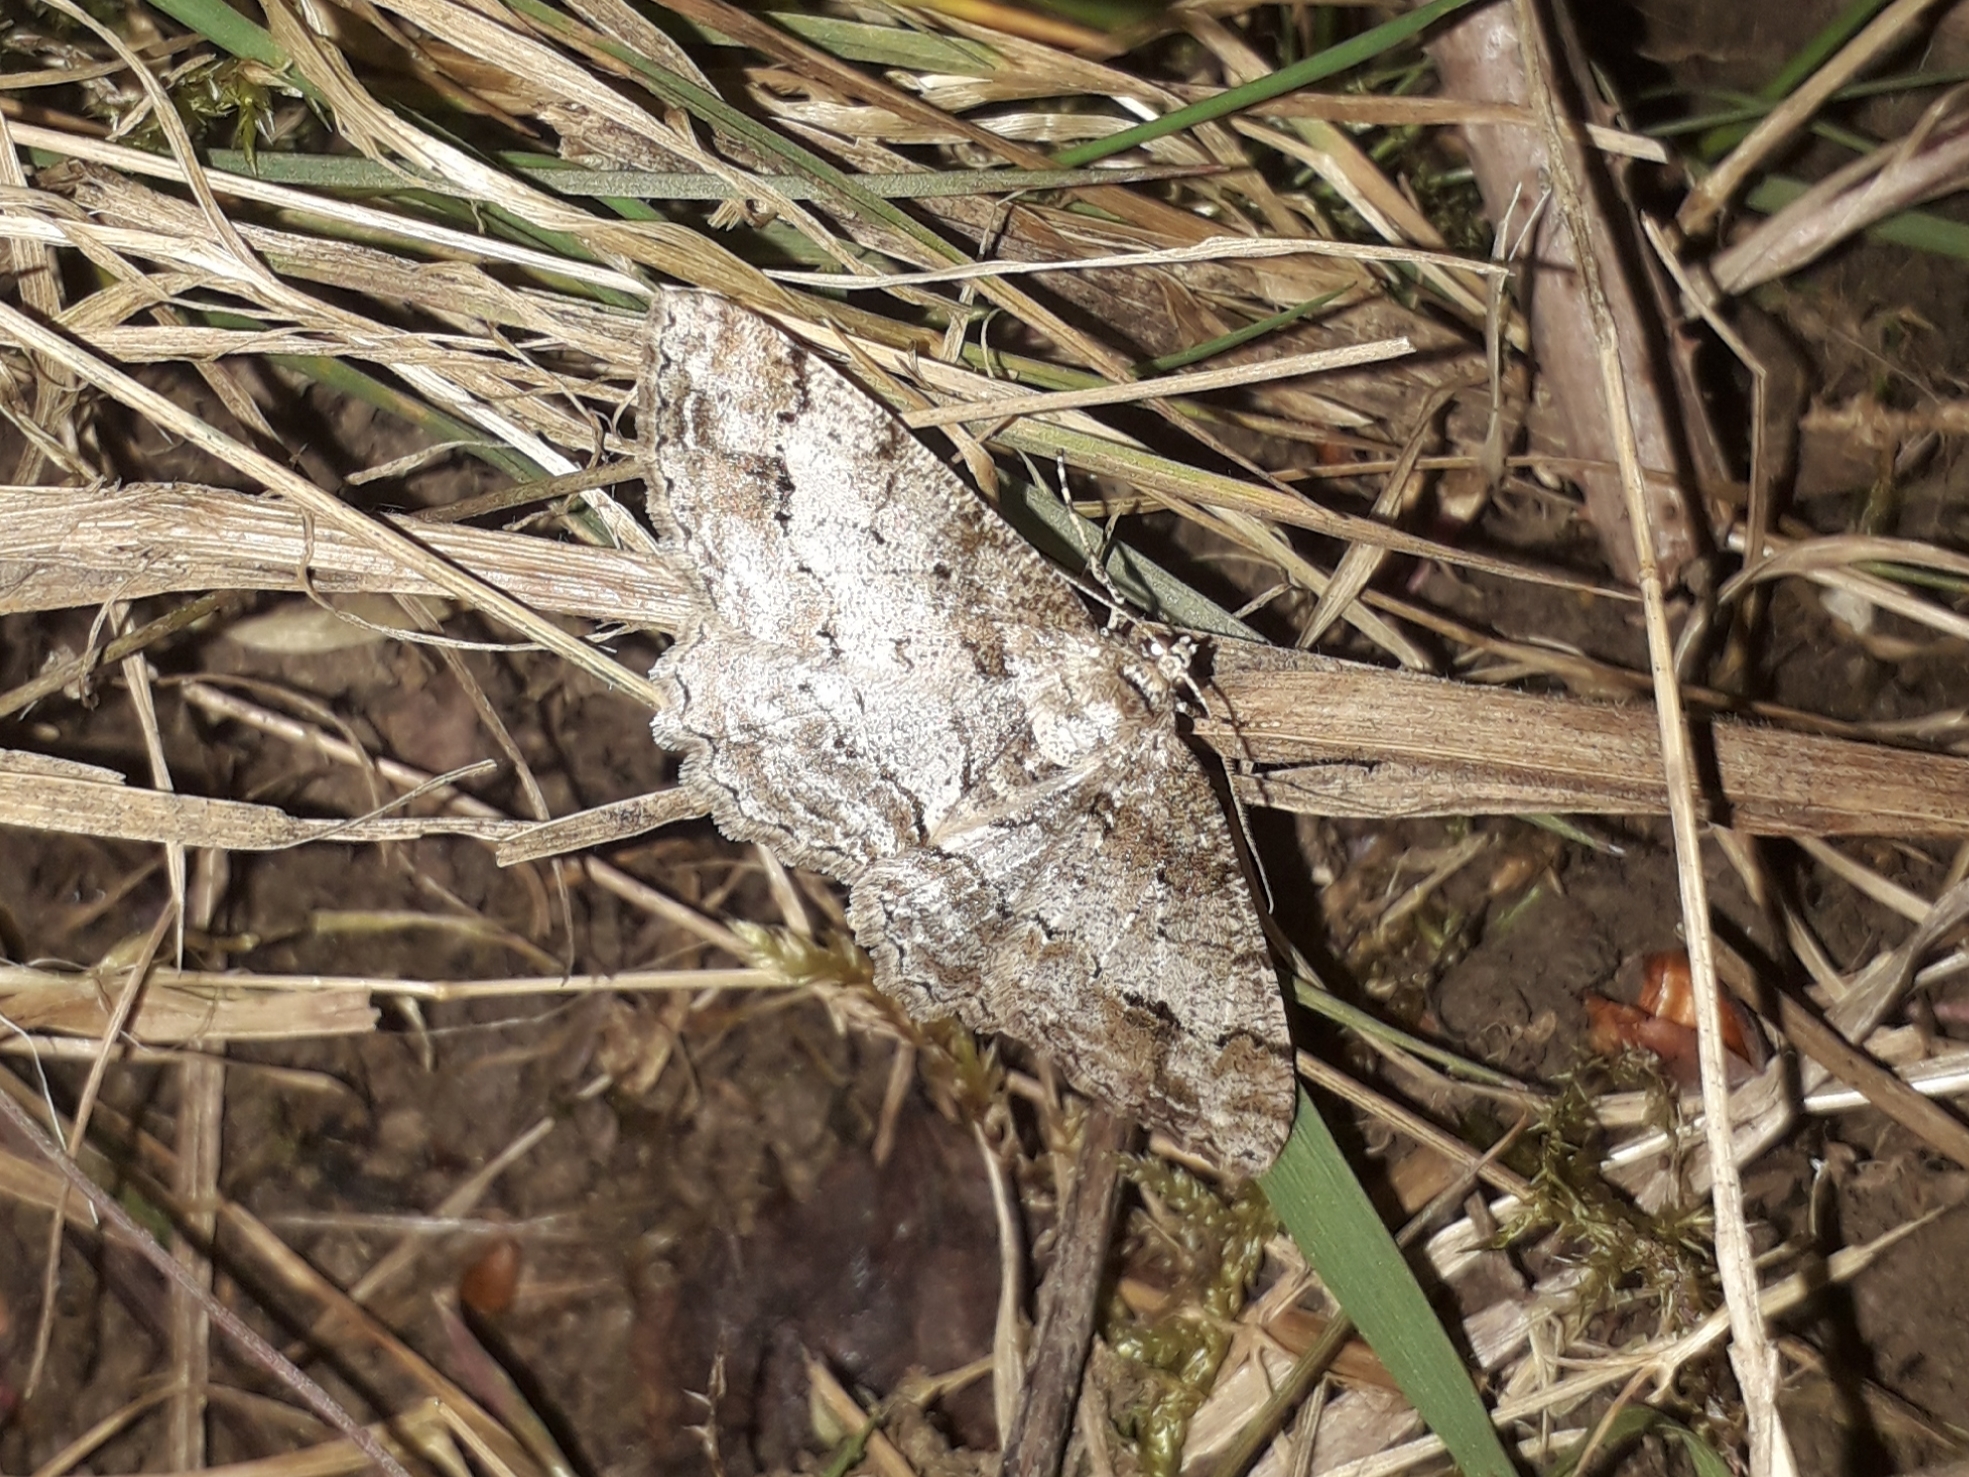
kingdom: Animalia
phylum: Arthropoda
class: Insecta
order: Lepidoptera
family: Geometridae
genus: Paradarisa
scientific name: Paradarisa consonaria
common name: Square spot
